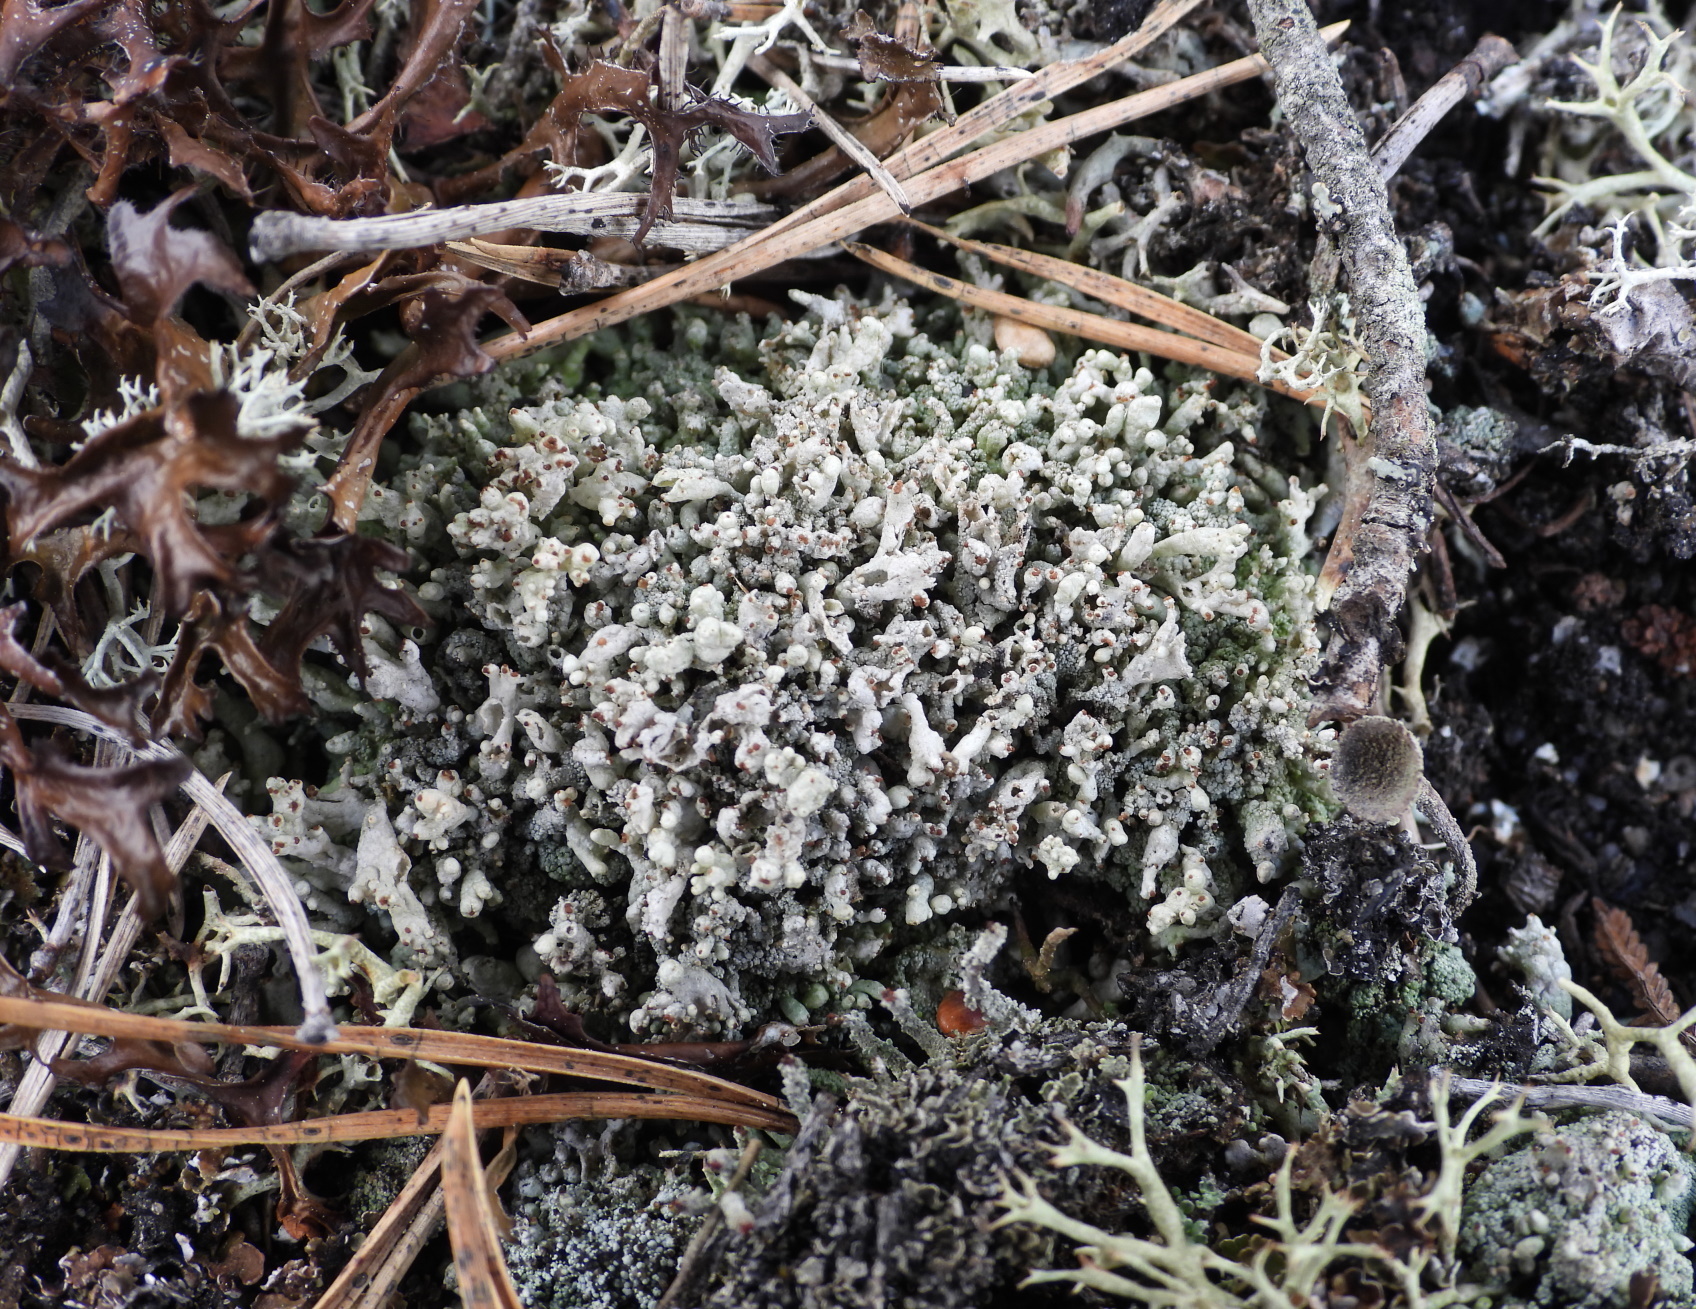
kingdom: Fungi
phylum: Ascomycota
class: Lecanoromycetes
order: Lecanorales
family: Cladoniaceae
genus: Pycnothelia
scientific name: Pycnothelia papillaria
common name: Nipple lichen
